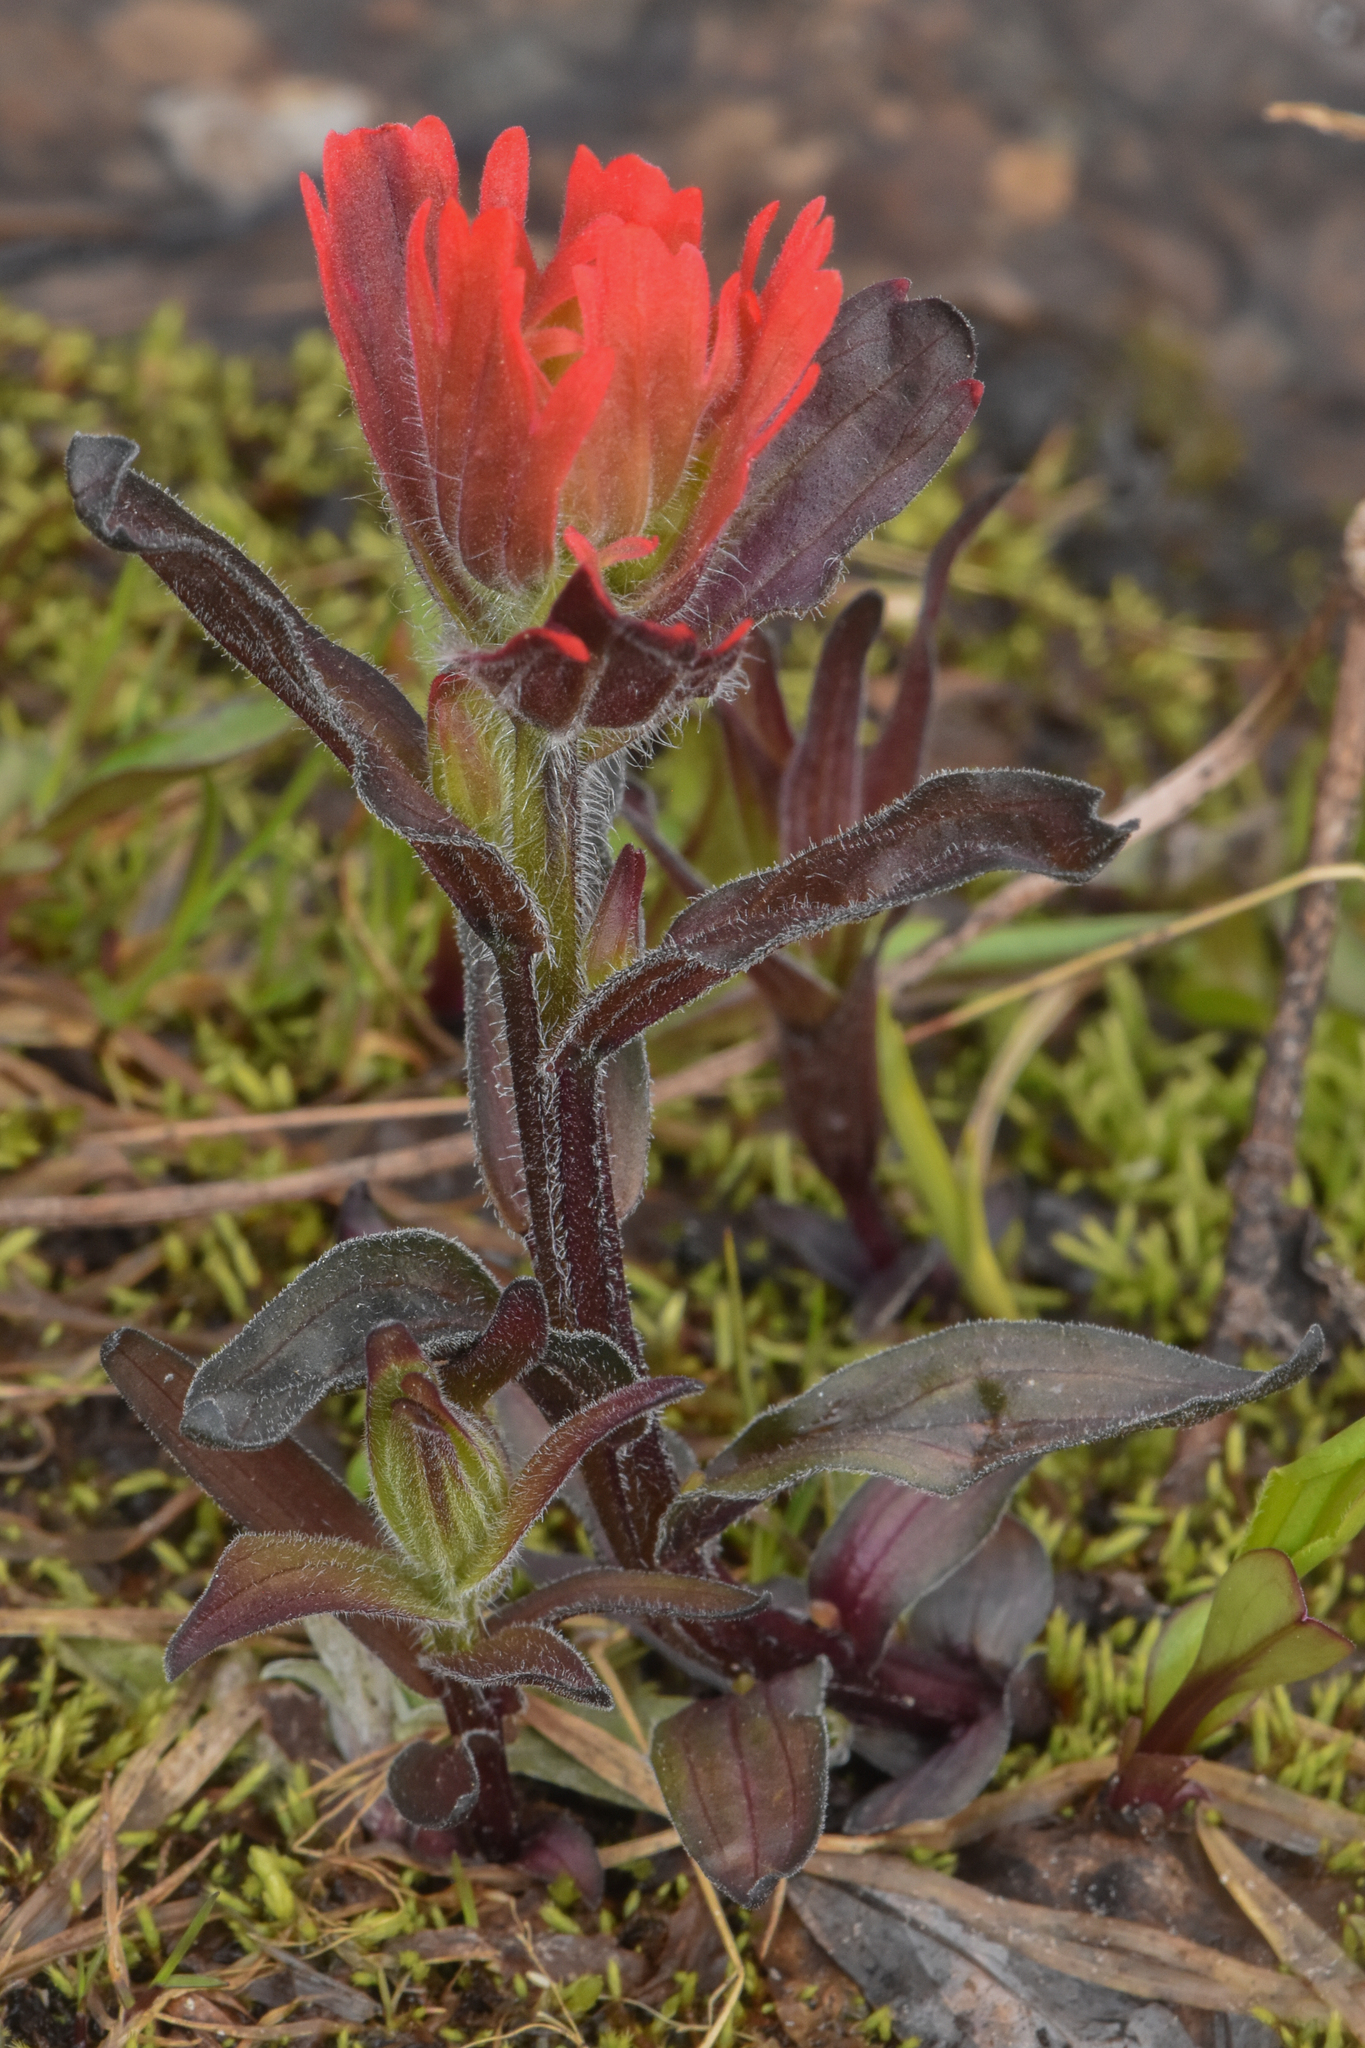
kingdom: Plantae
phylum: Tracheophyta
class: Magnoliopsida
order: Lamiales
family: Orobanchaceae
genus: Castilleja
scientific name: Castilleja miniata
